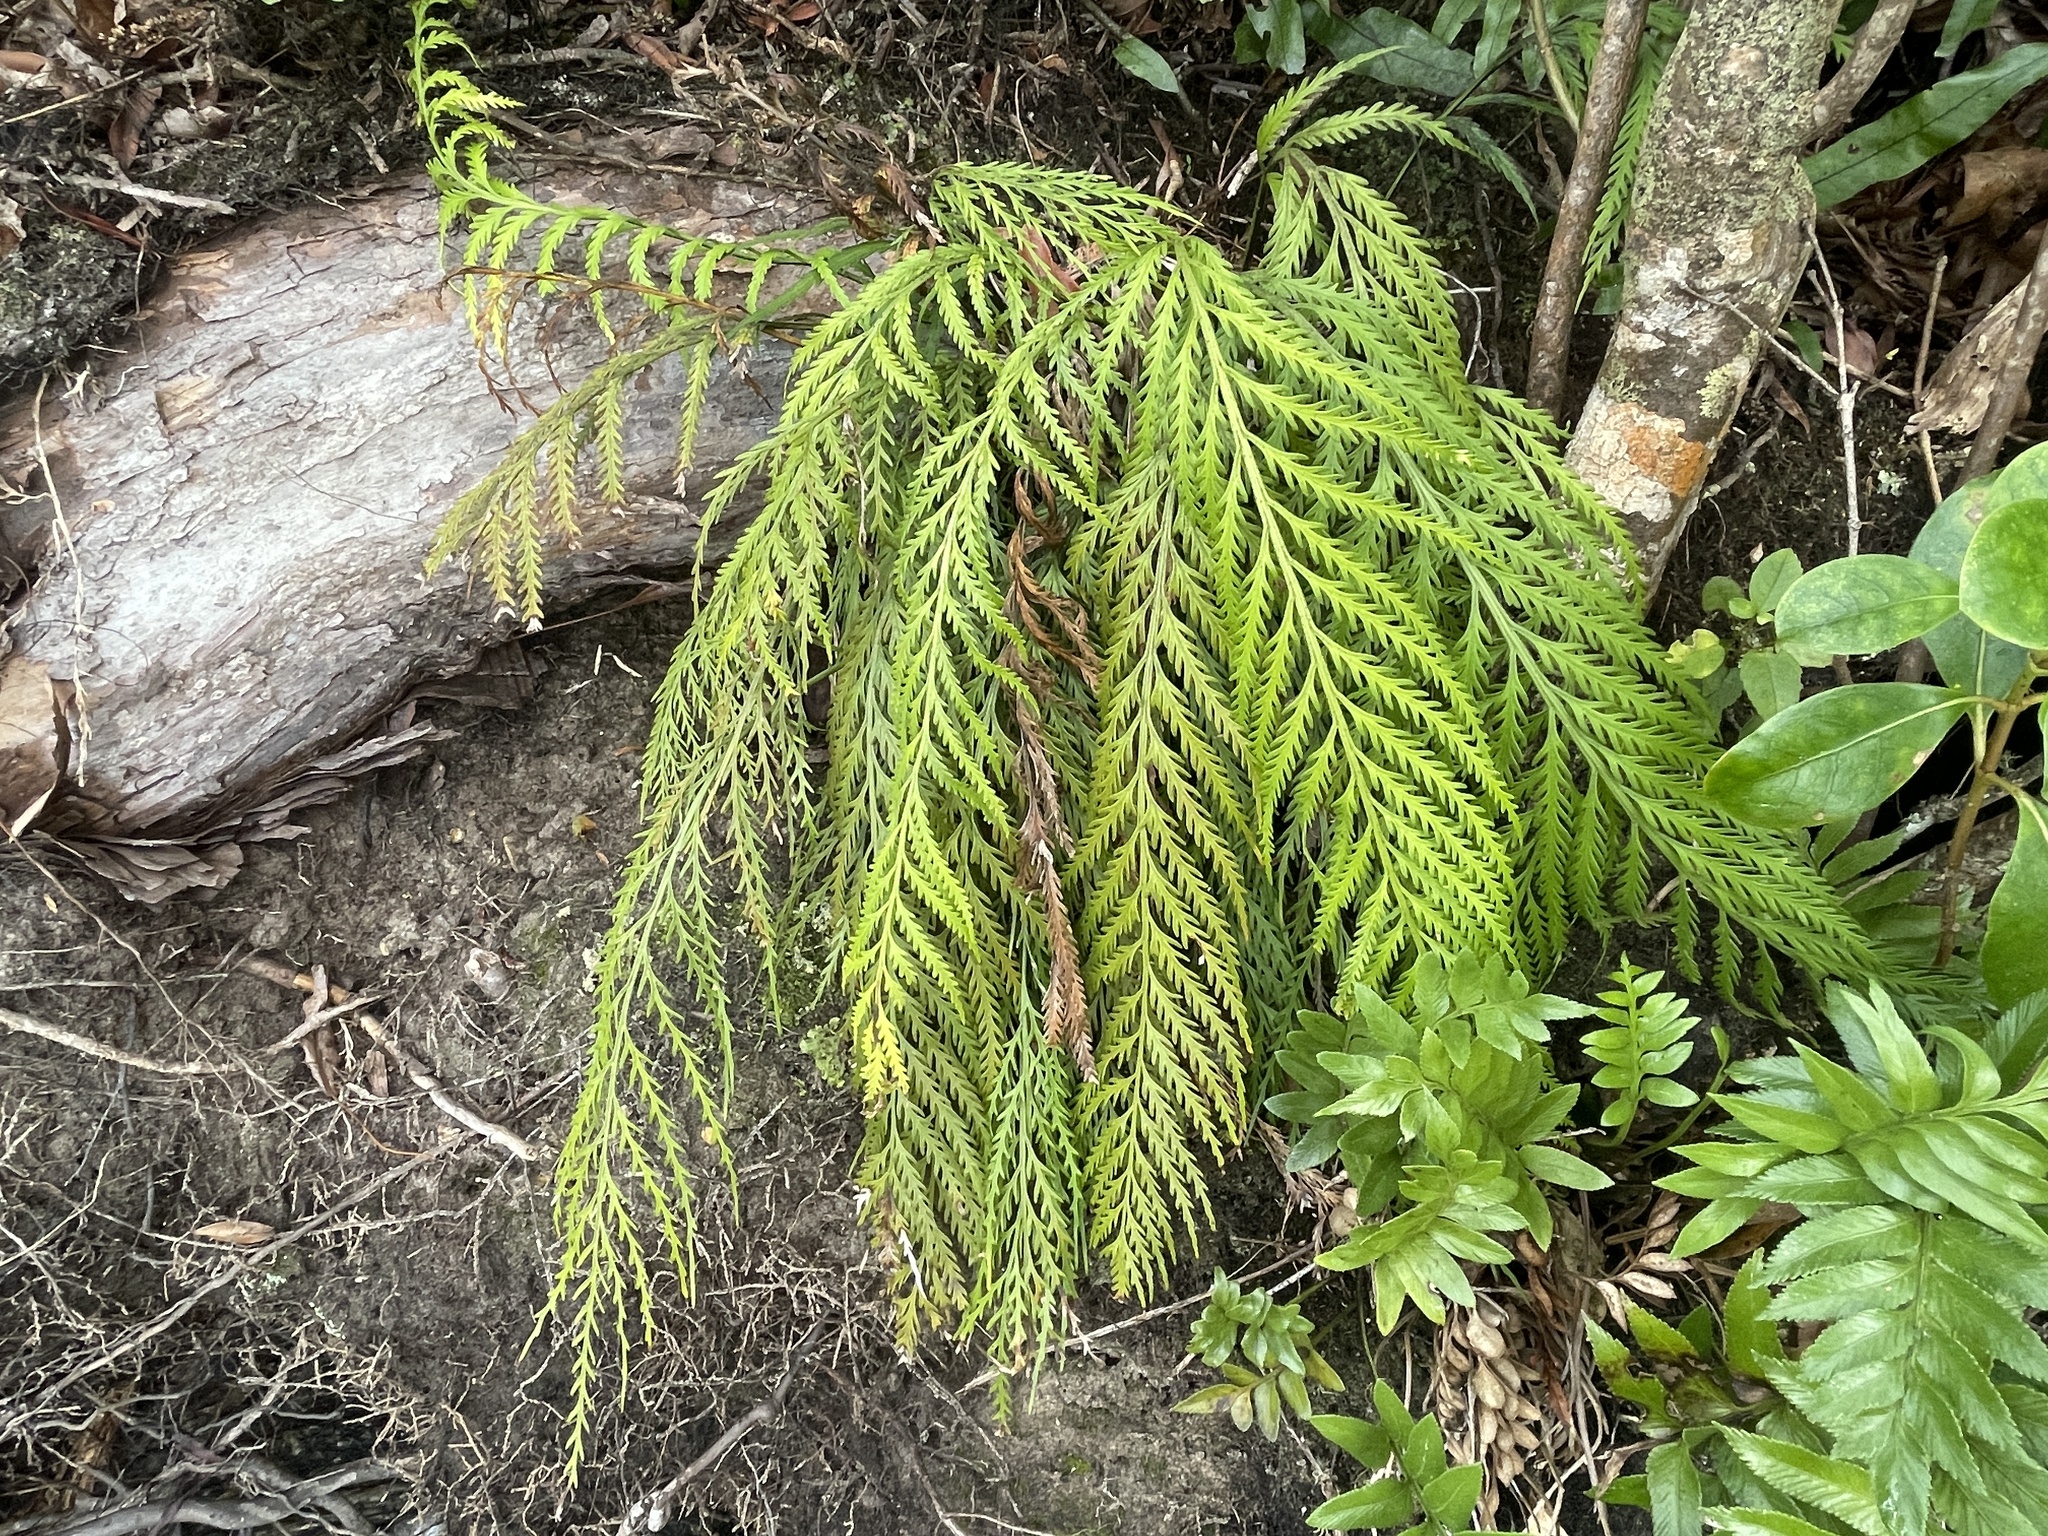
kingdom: Plantae
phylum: Tracheophyta
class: Polypodiopsida
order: Polypodiales
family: Aspleniaceae
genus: Asplenium
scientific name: Asplenium flaccidum
